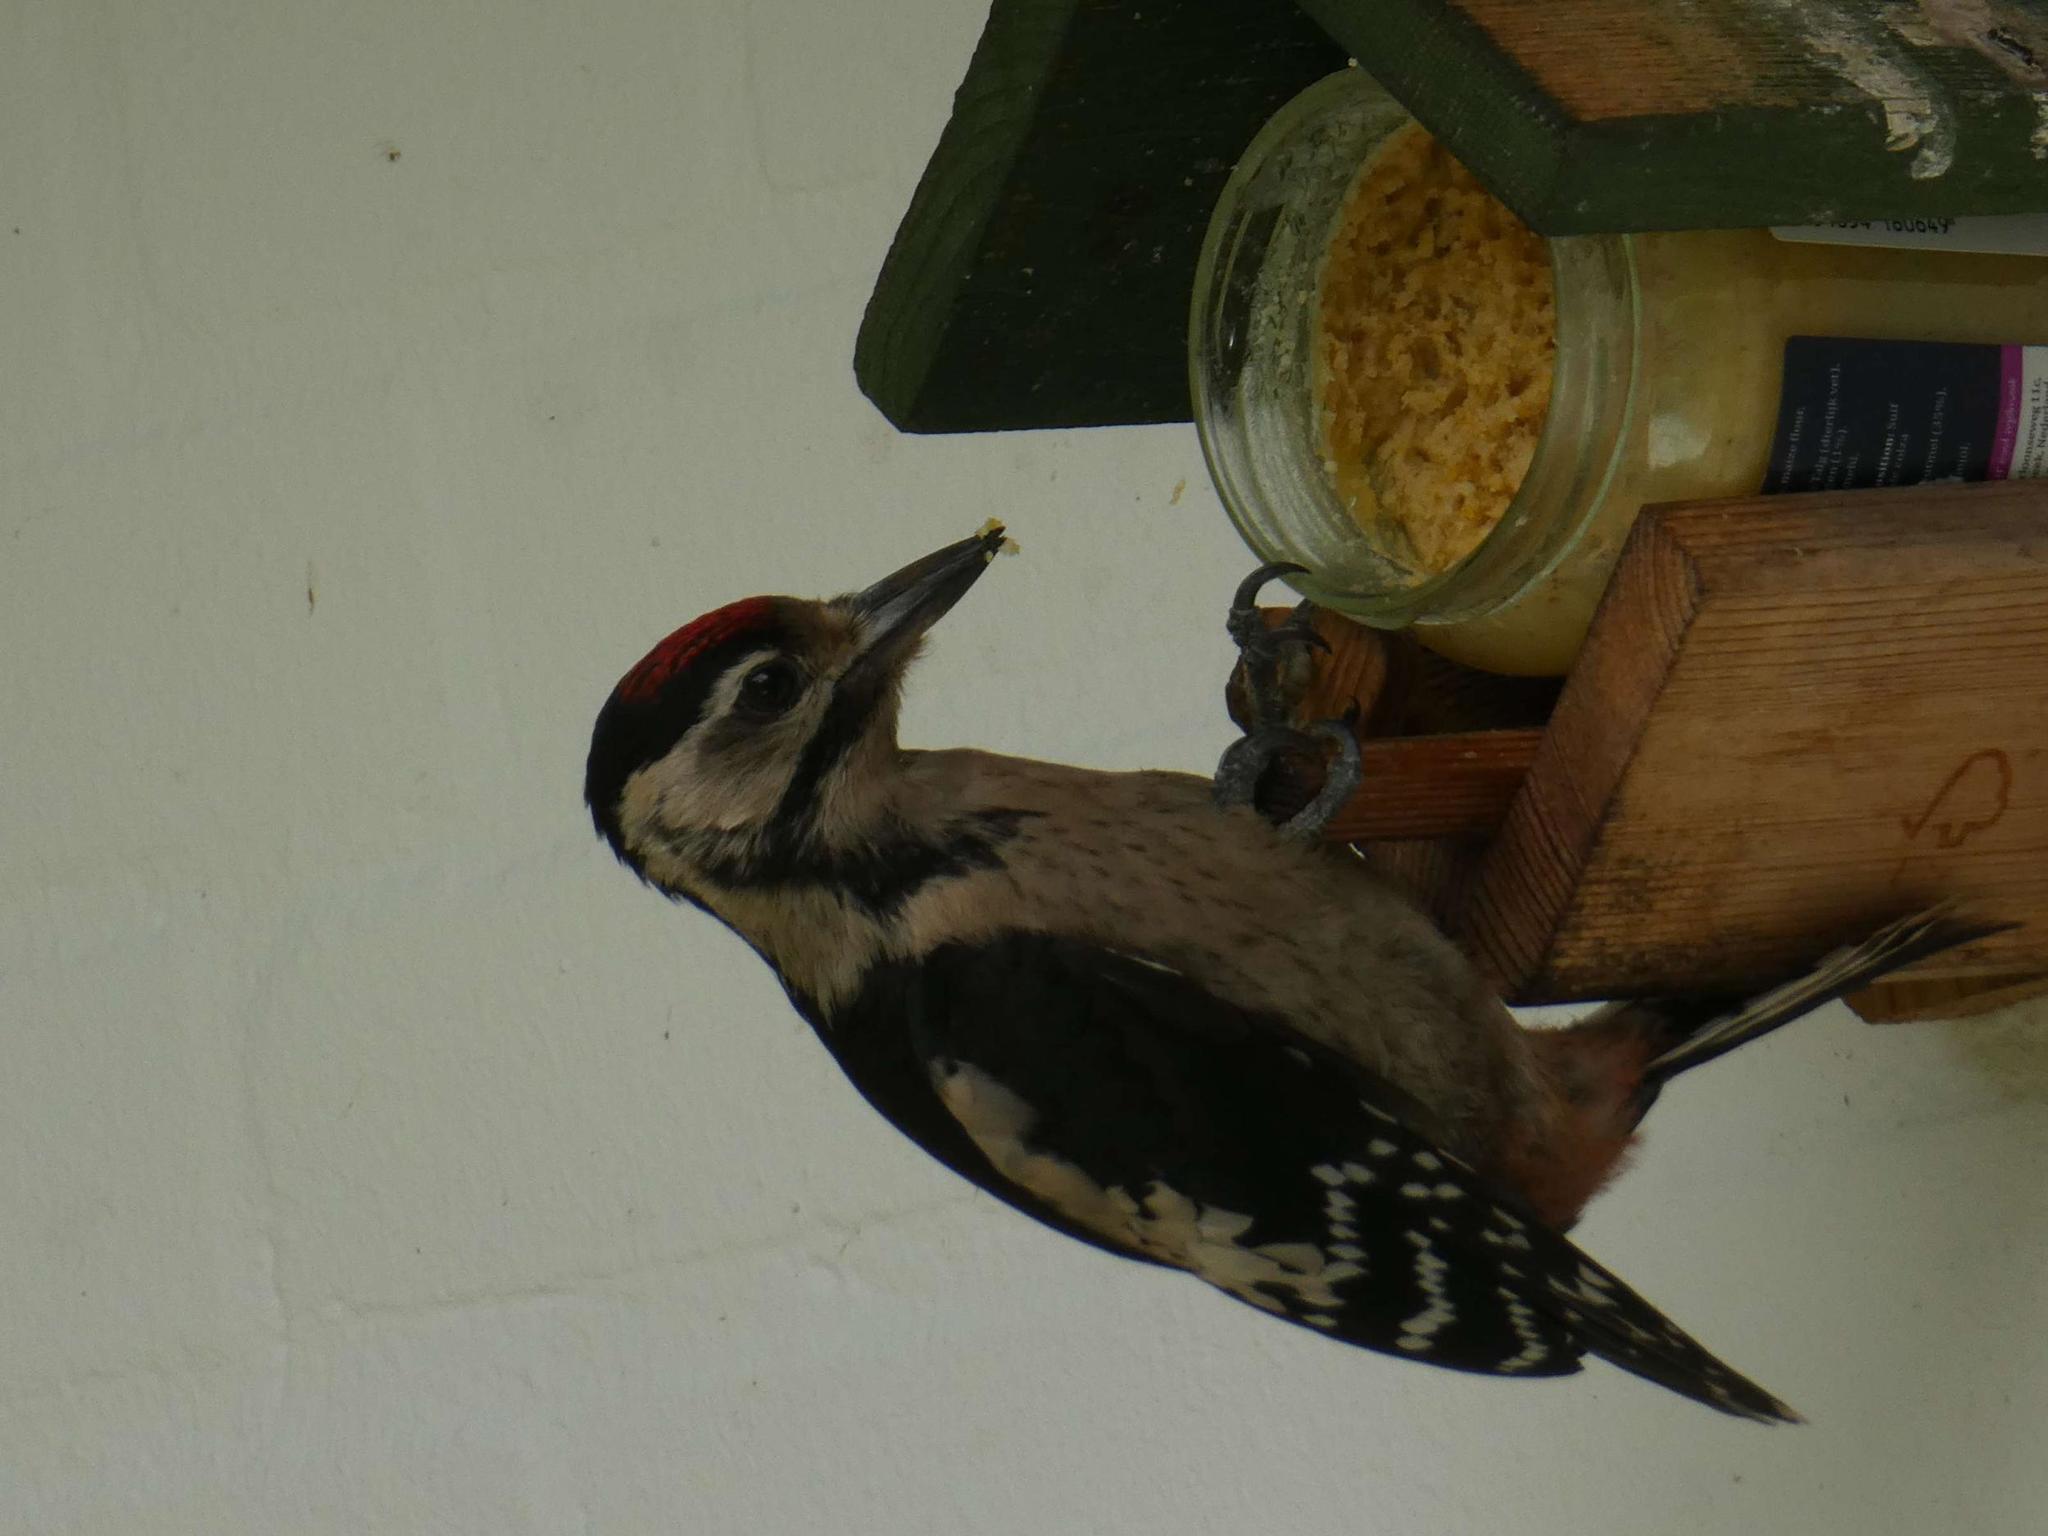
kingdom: Animalia
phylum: Chordata
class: Aves
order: Piciformes
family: Picidae
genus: Dendrocopos
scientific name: Dendrocopos major
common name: Great spotted woodpecker
